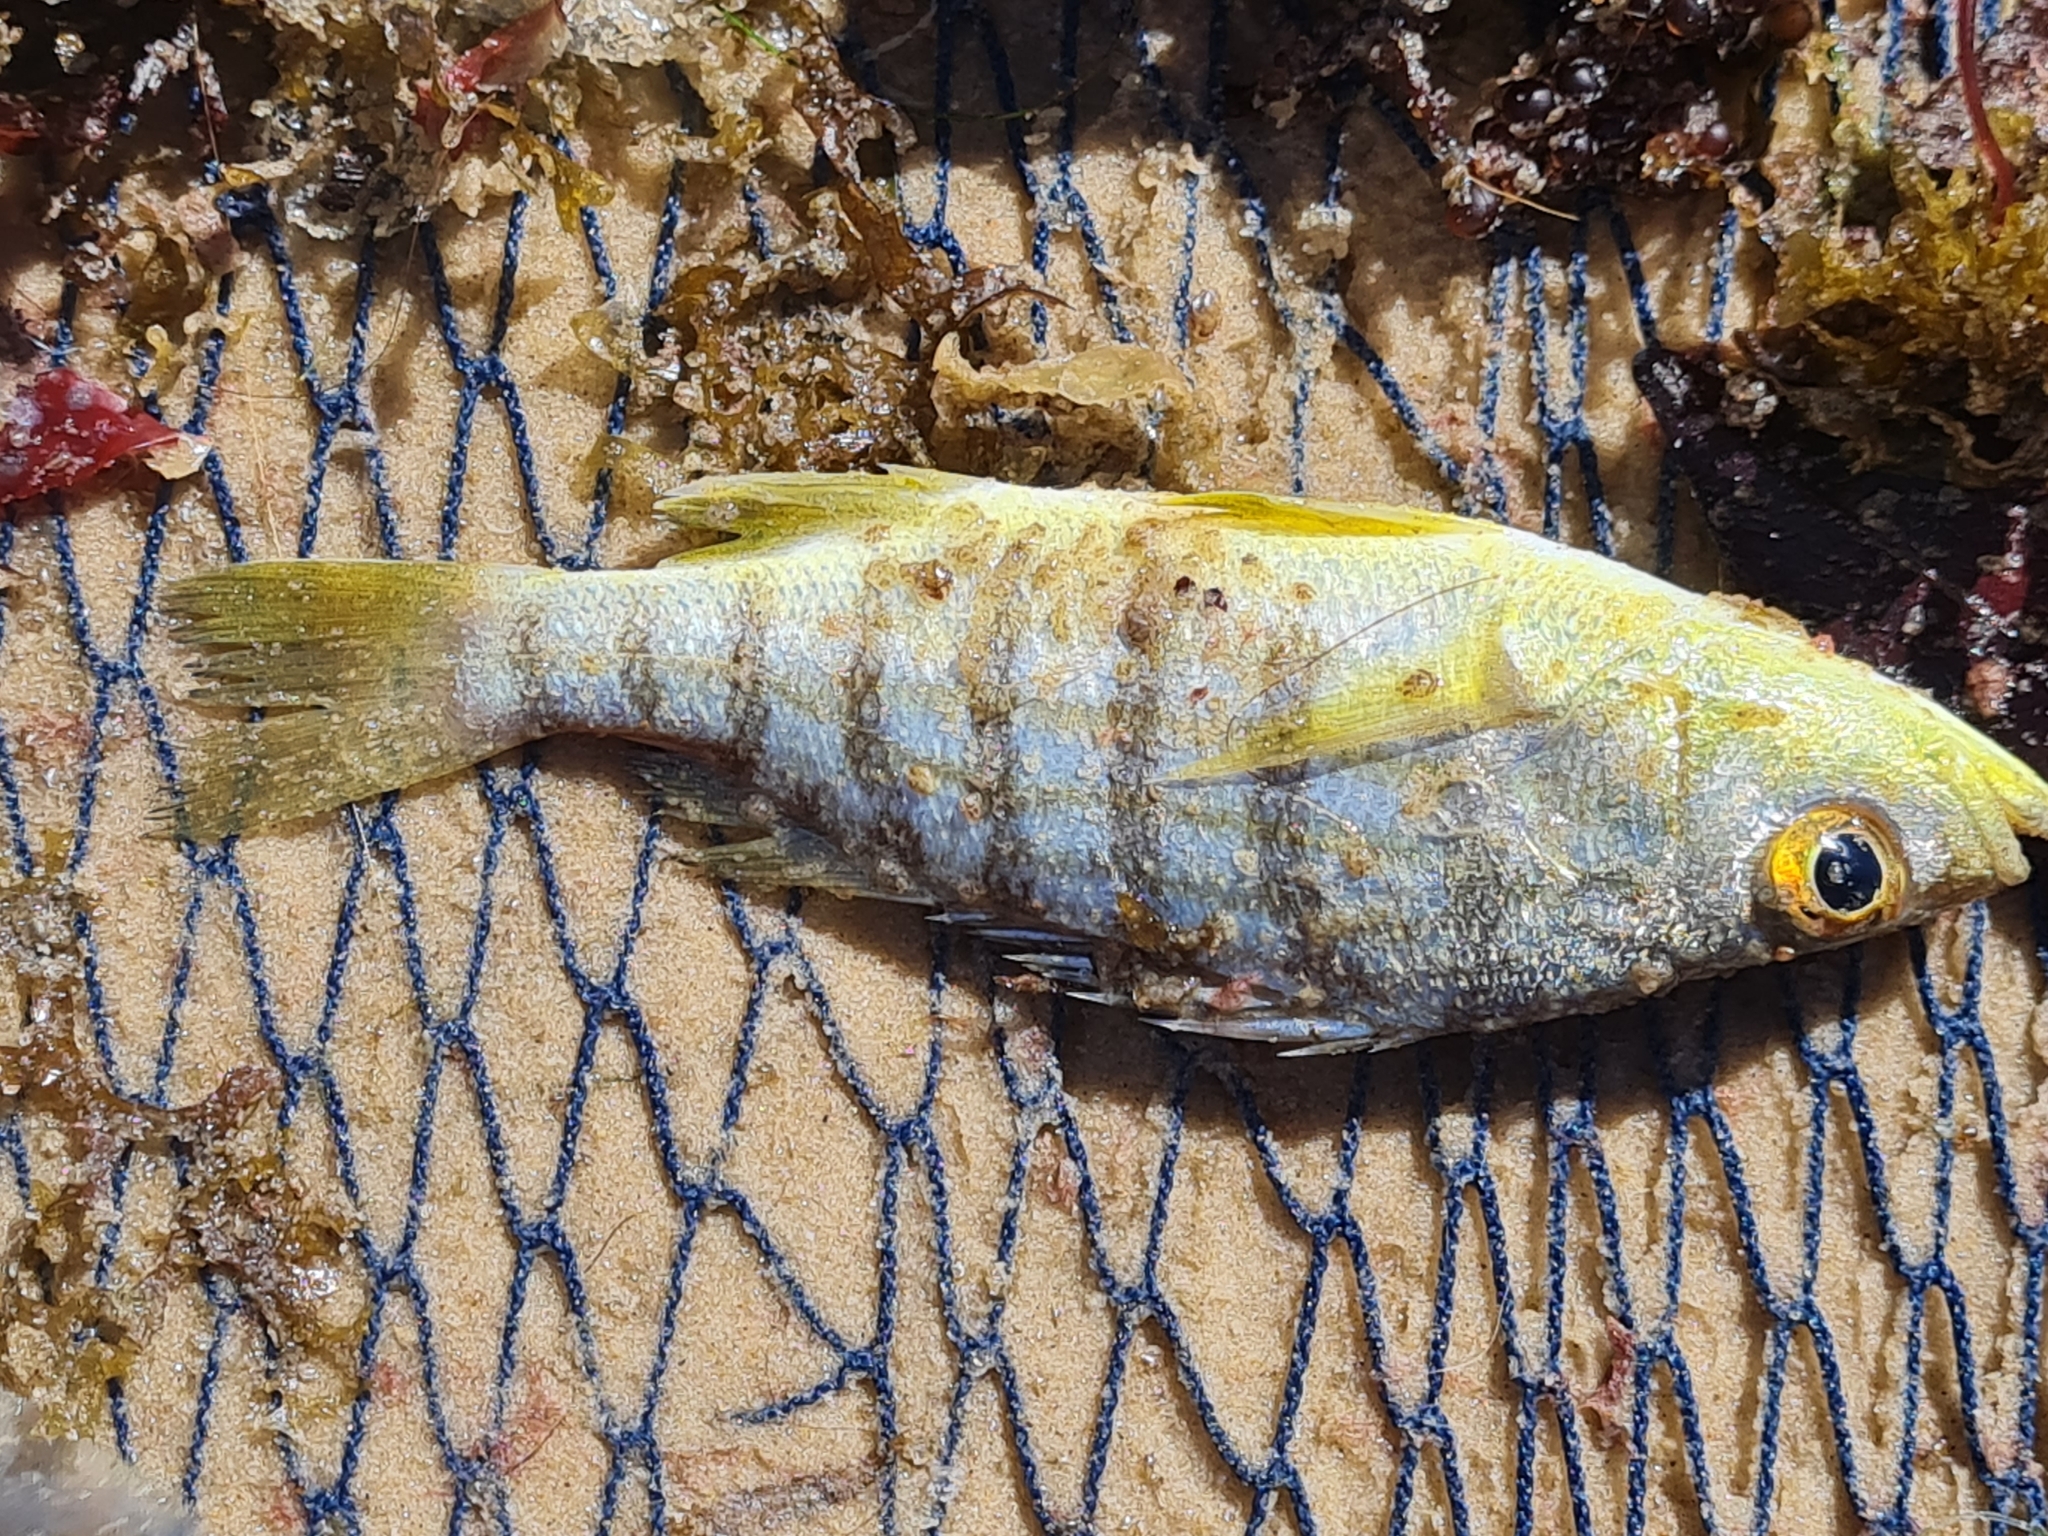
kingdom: Animalia
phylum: Chordata
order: Perciformes
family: Haemulidae
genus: Conodon
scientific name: Conodon nobilis
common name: Barred grunt
